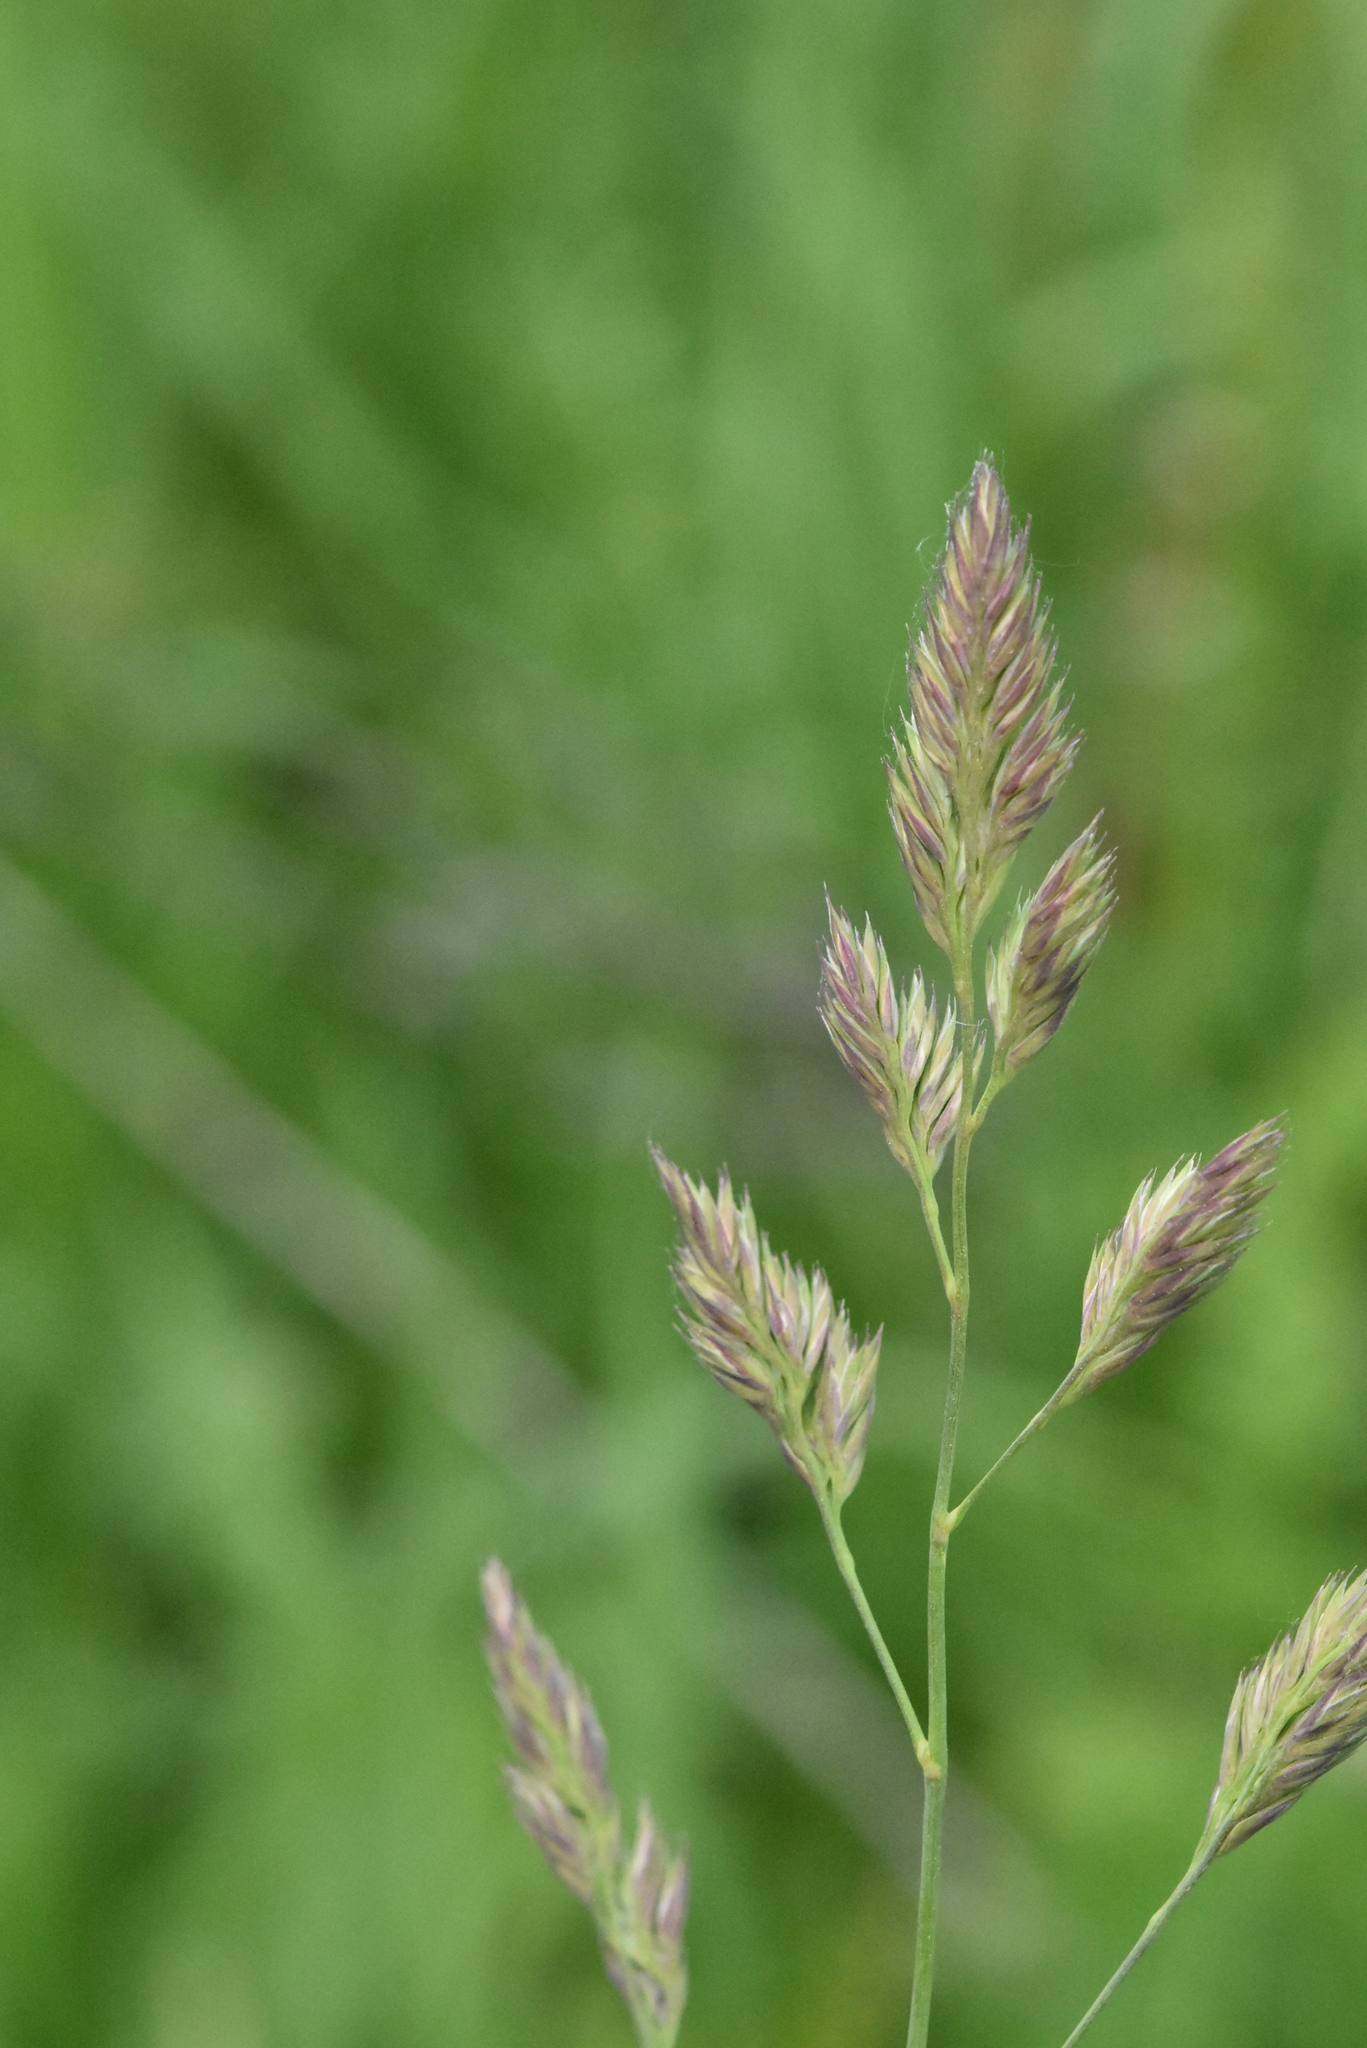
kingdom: Plantae
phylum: Tracheophyta
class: Liliopsida
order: Poales
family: Poaceae
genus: Dactylis
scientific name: Dactylis glomerata
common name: Orchardgrass
